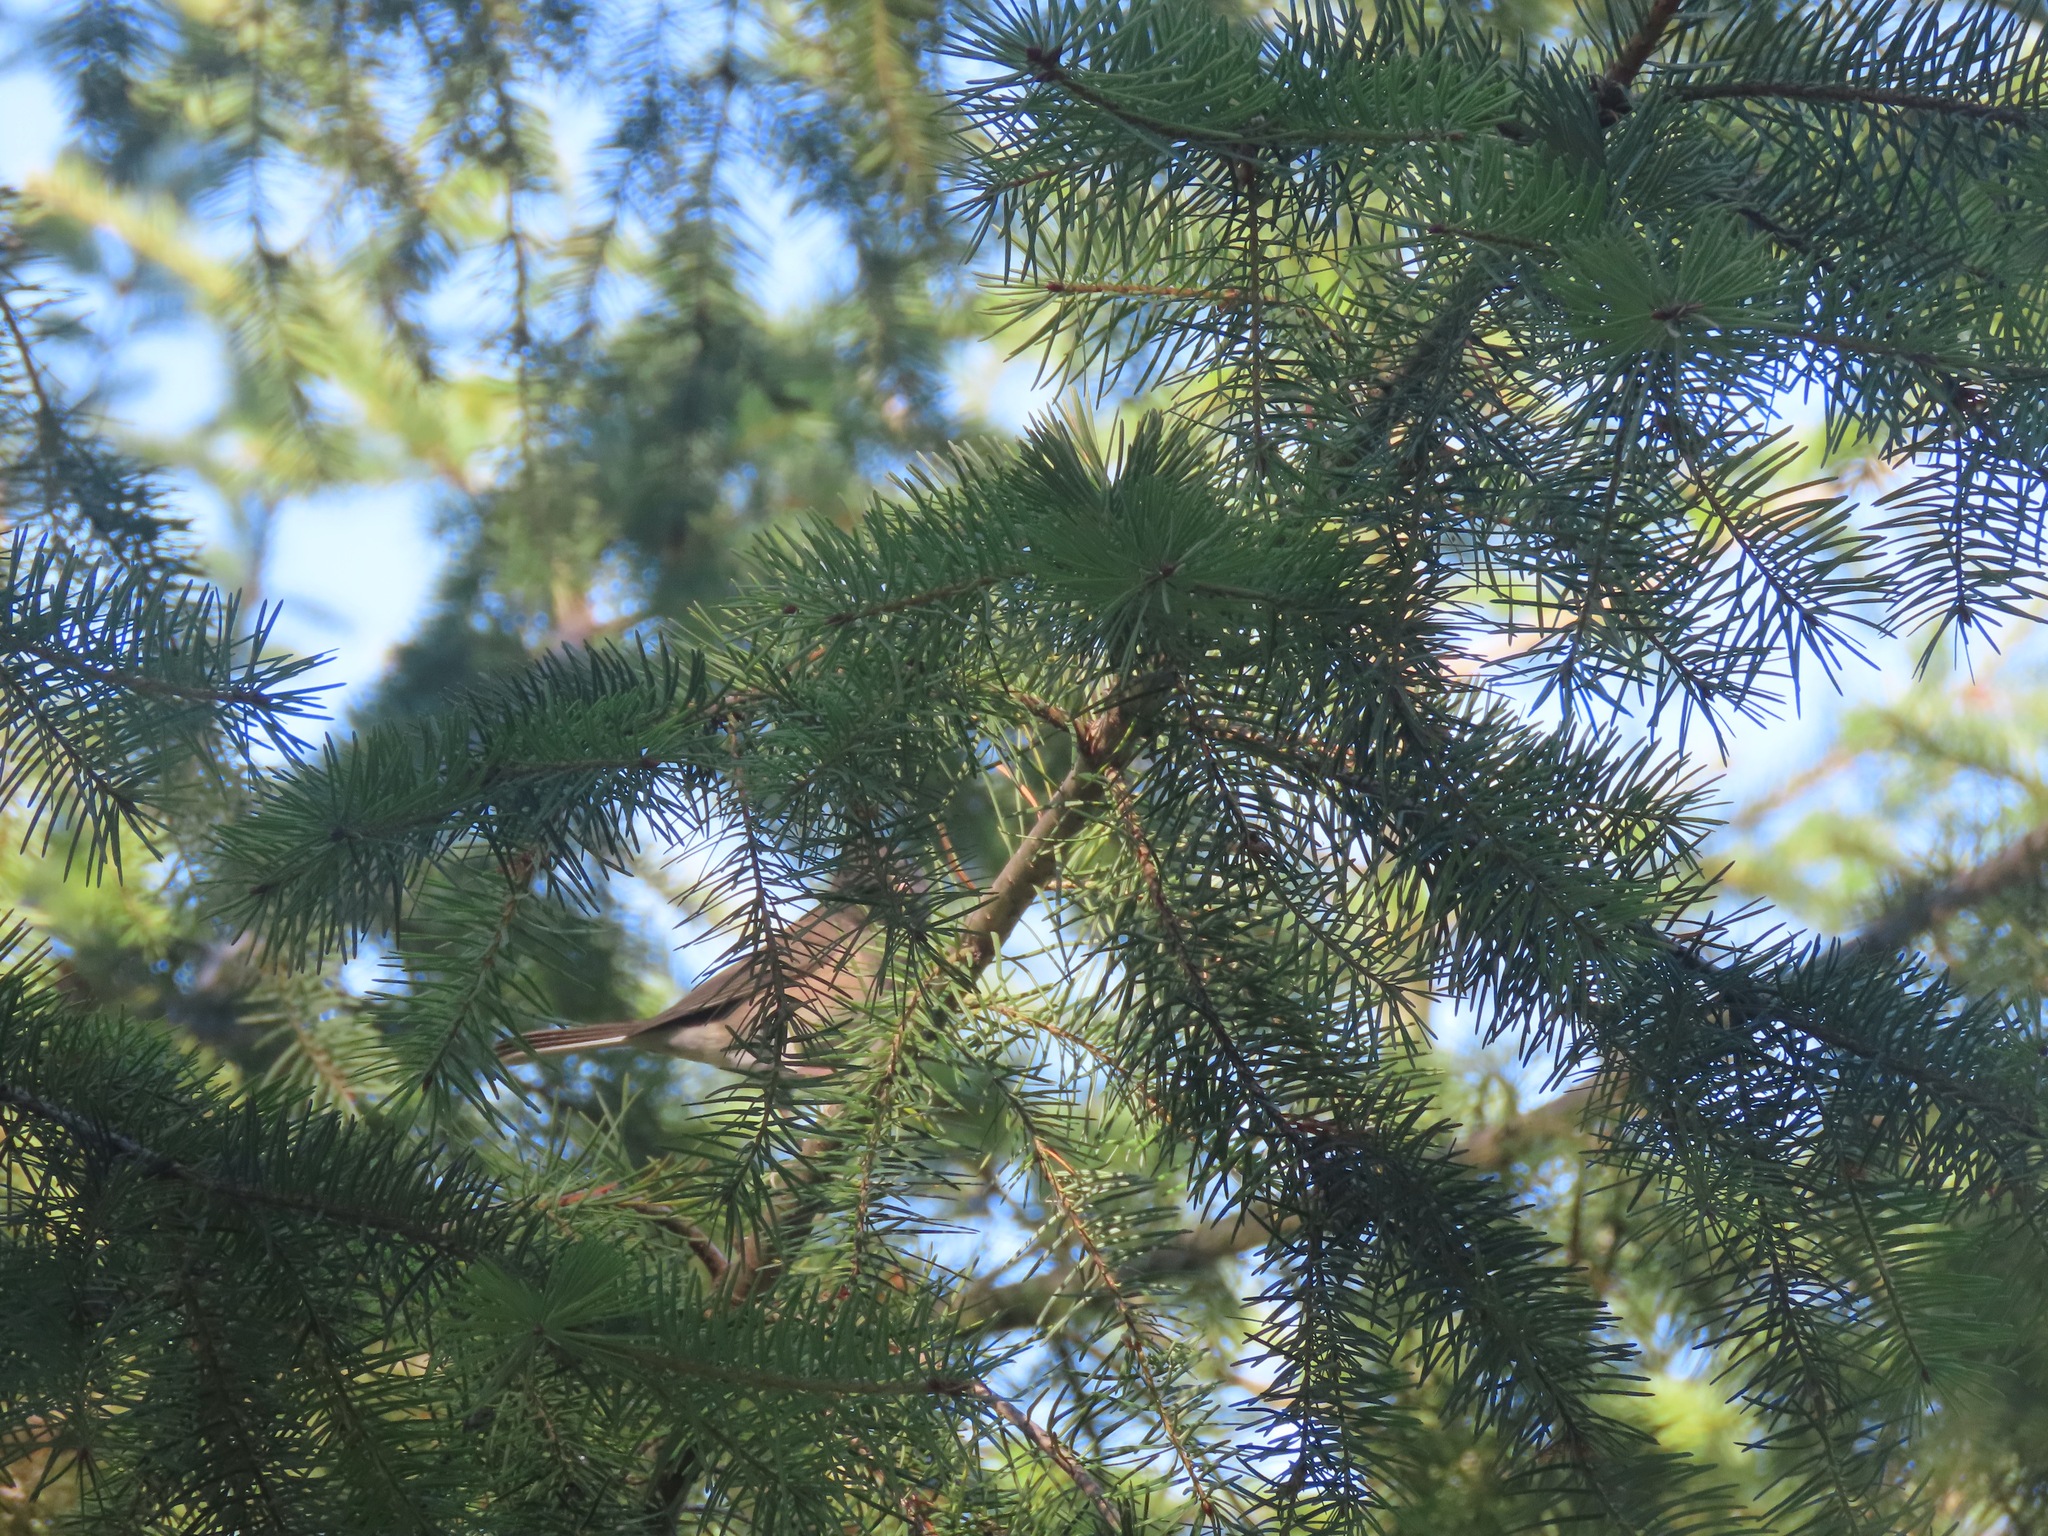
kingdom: Animalia
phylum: Chordata
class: Aves
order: Passeriformes
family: Passerellidae
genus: Junco
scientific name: Junco hyemalis
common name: Dark-eyed junco
